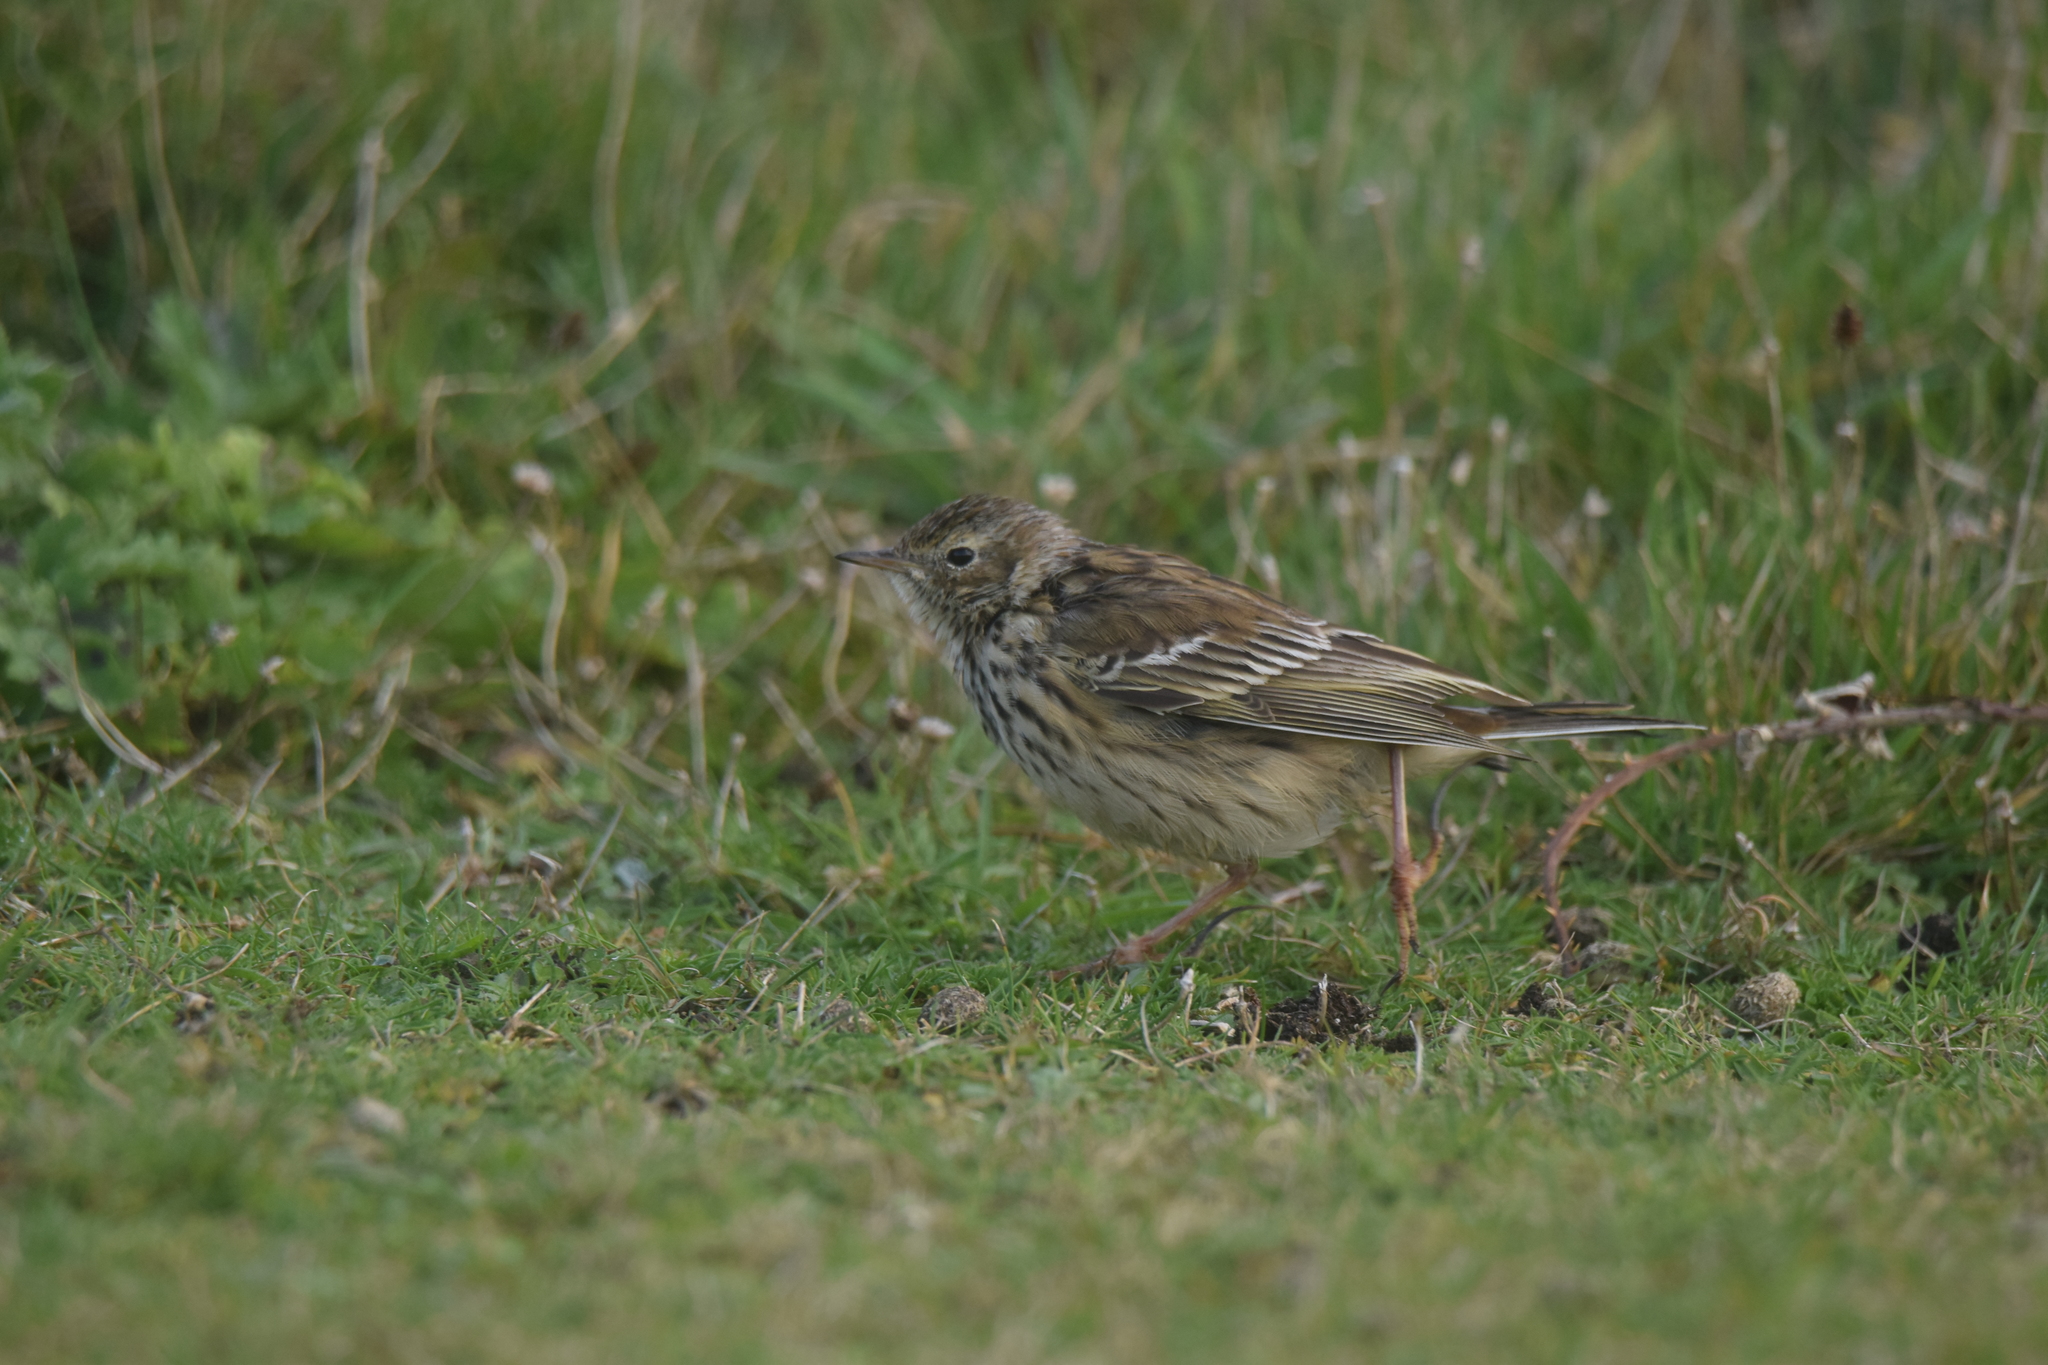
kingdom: Animalia
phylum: Chordata
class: Aves
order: Passeriformes
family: Motacillidae
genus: Anthus
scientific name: Anthus pratensis
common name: Meadow pipit
